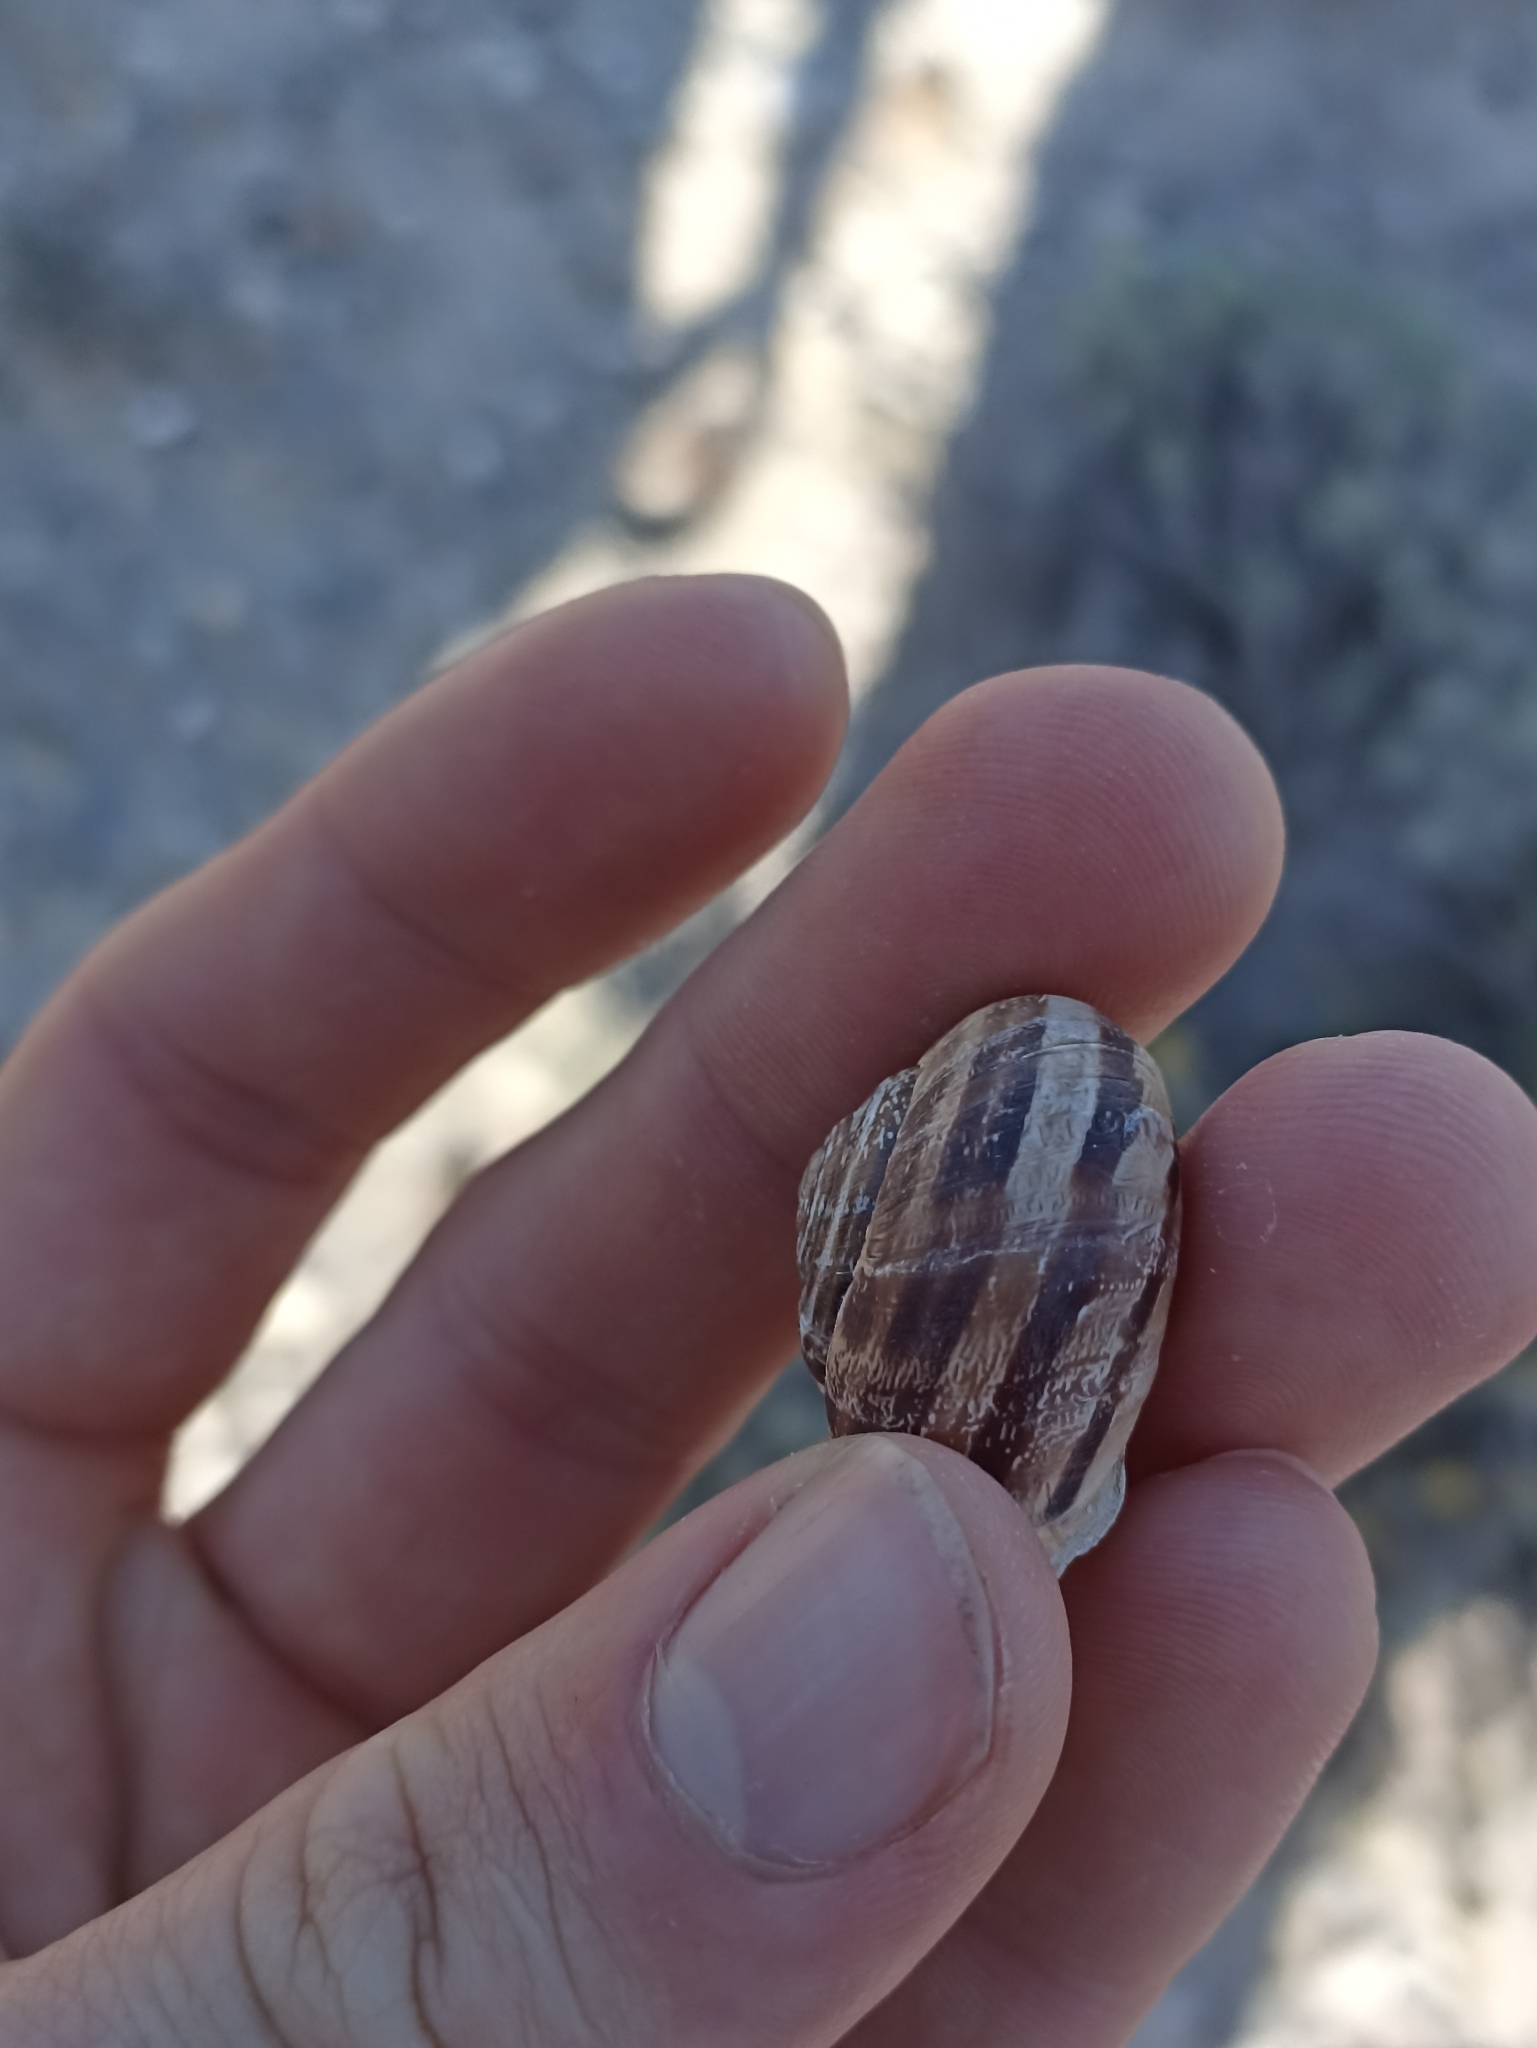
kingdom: Animalia
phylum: Mollusca
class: Gastropoda
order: Stylommatophora
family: Helicidae
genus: Eobania
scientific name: Eobania vermiculata
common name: Chocolateband snail
